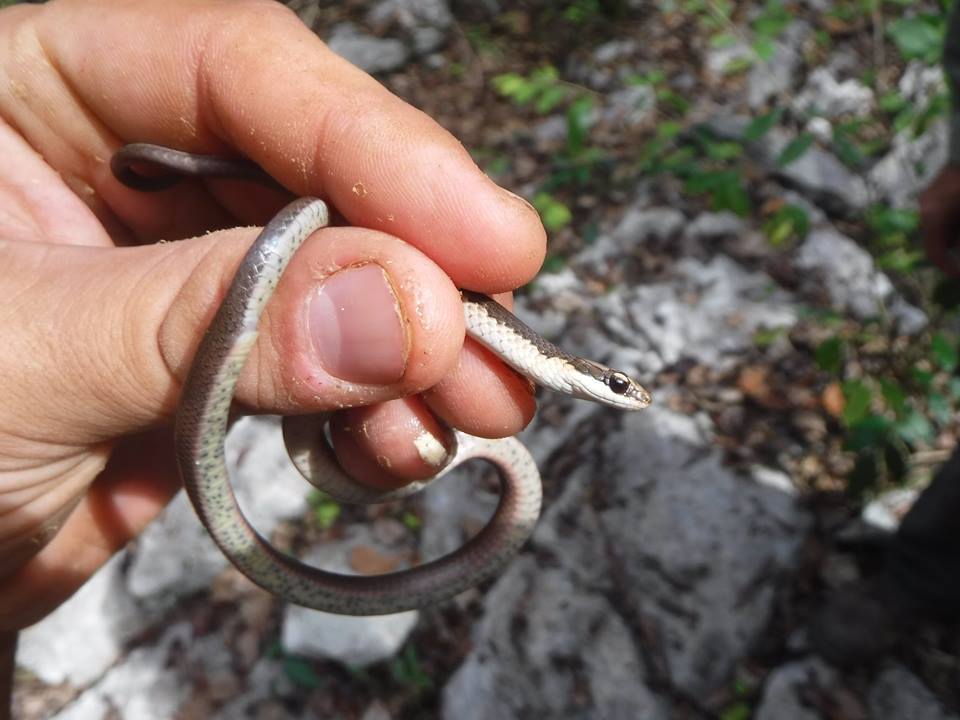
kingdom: Animalia
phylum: Chordata
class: Squamata
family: Colubridae
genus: Caraiba
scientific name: Caraiba andreae
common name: Cuban lesser racer
